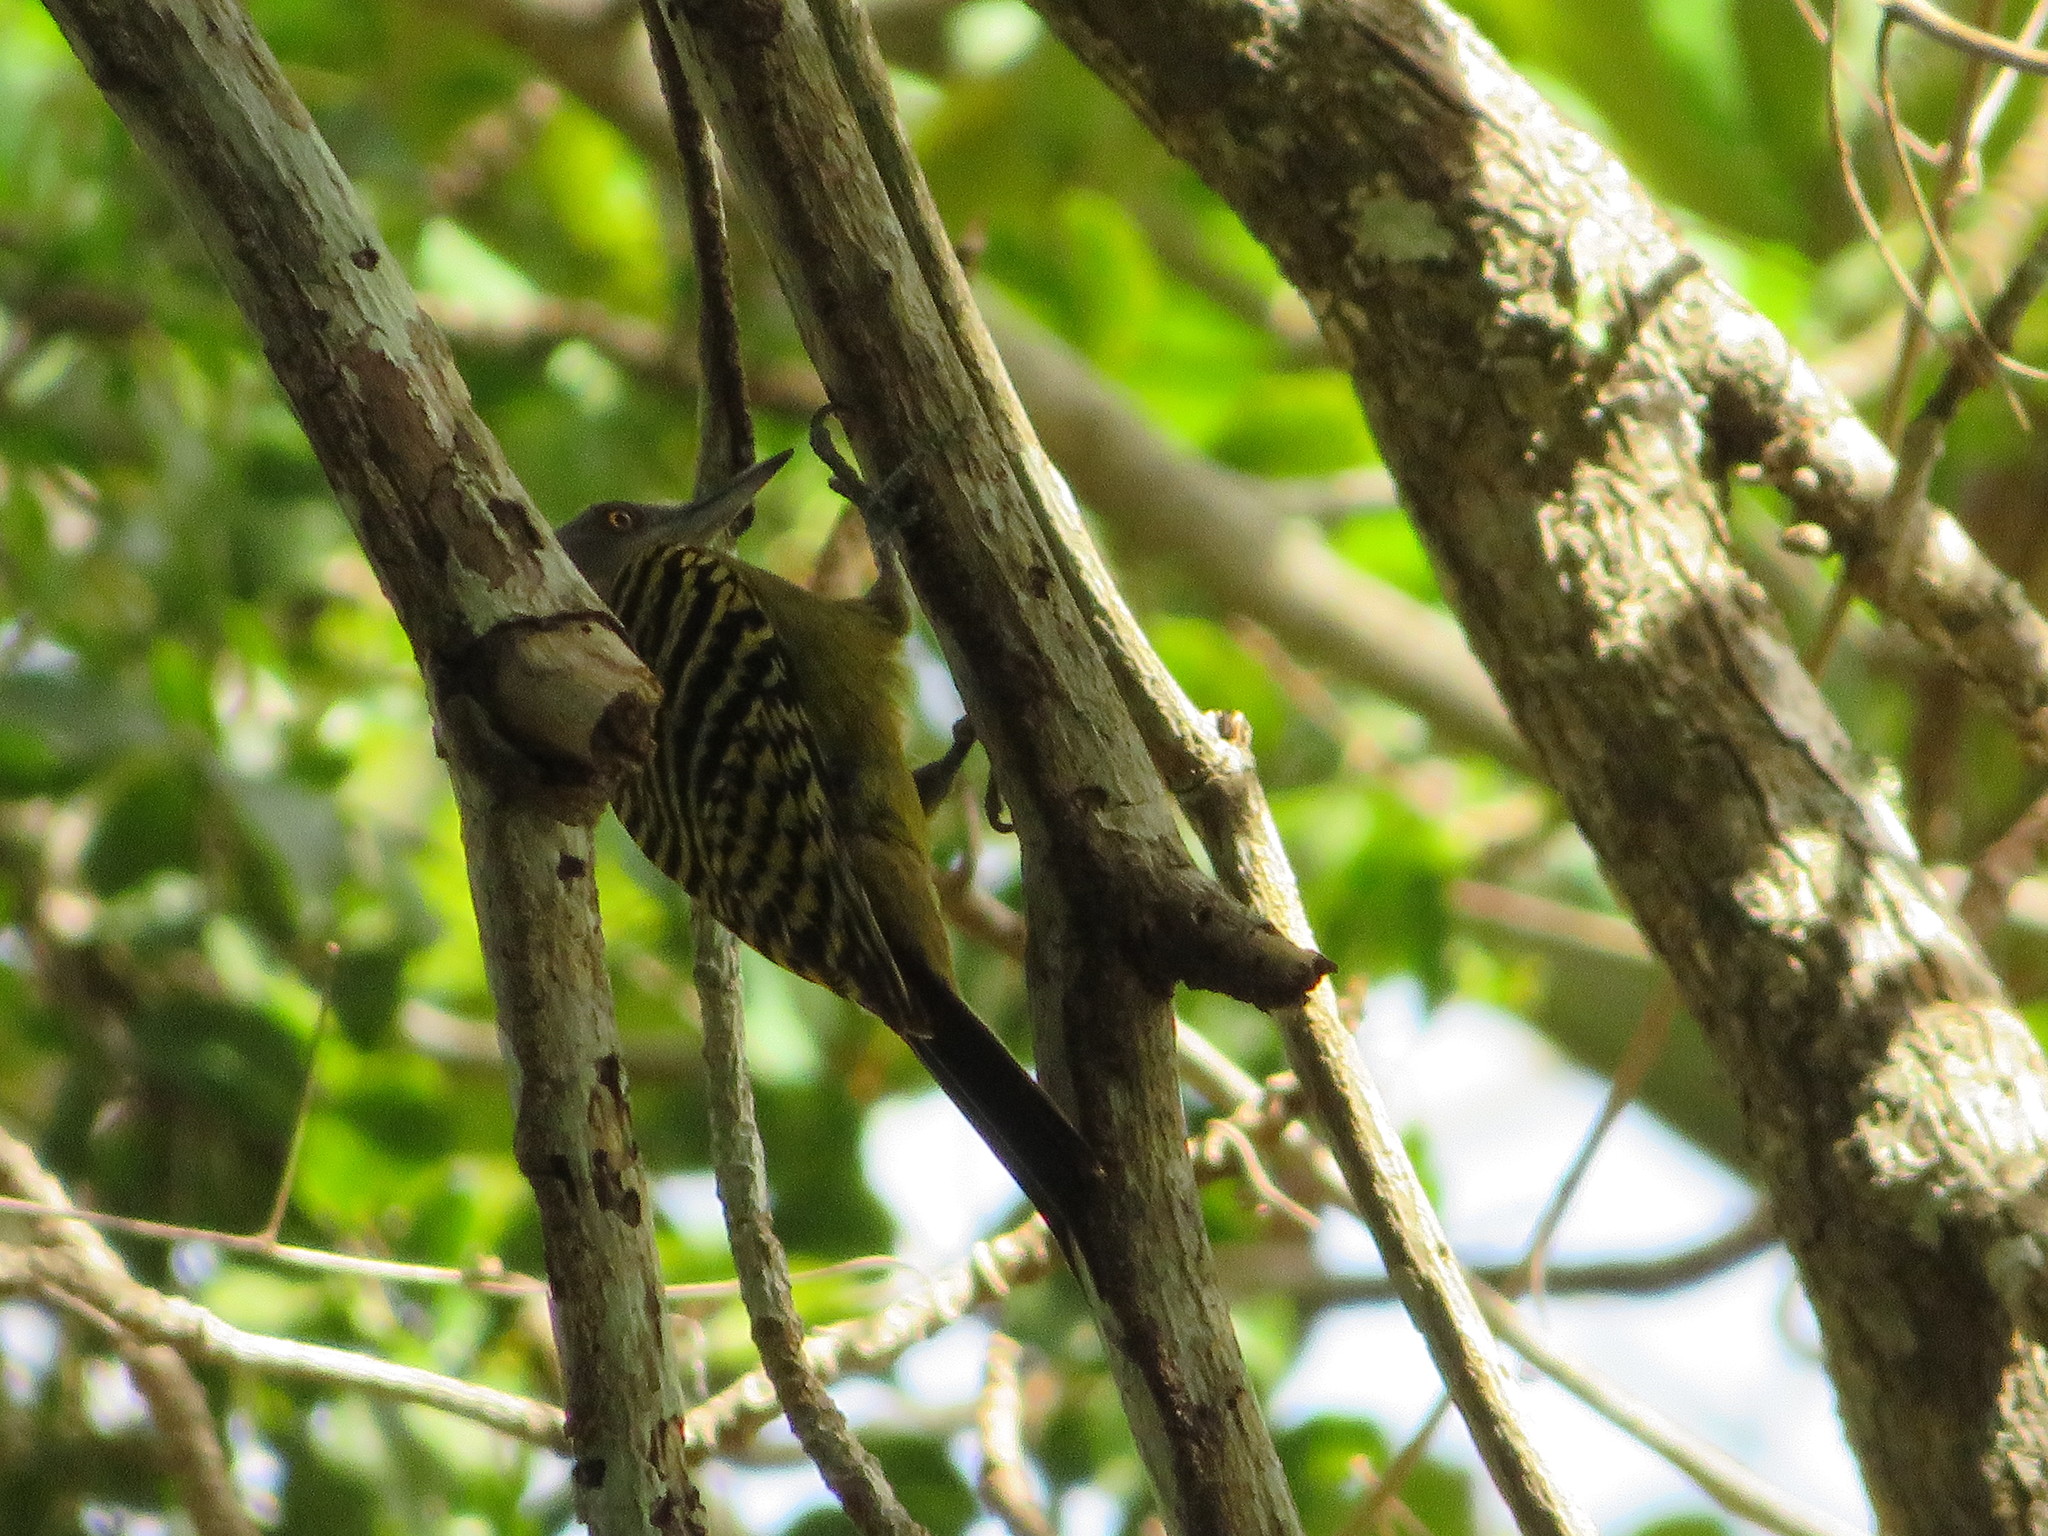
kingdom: Animalia
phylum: Chordata
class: Aves
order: Piciformes
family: Picidae
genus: Melanerpes
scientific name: Melanerpes striatus
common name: Hispaniolan woodpecker
